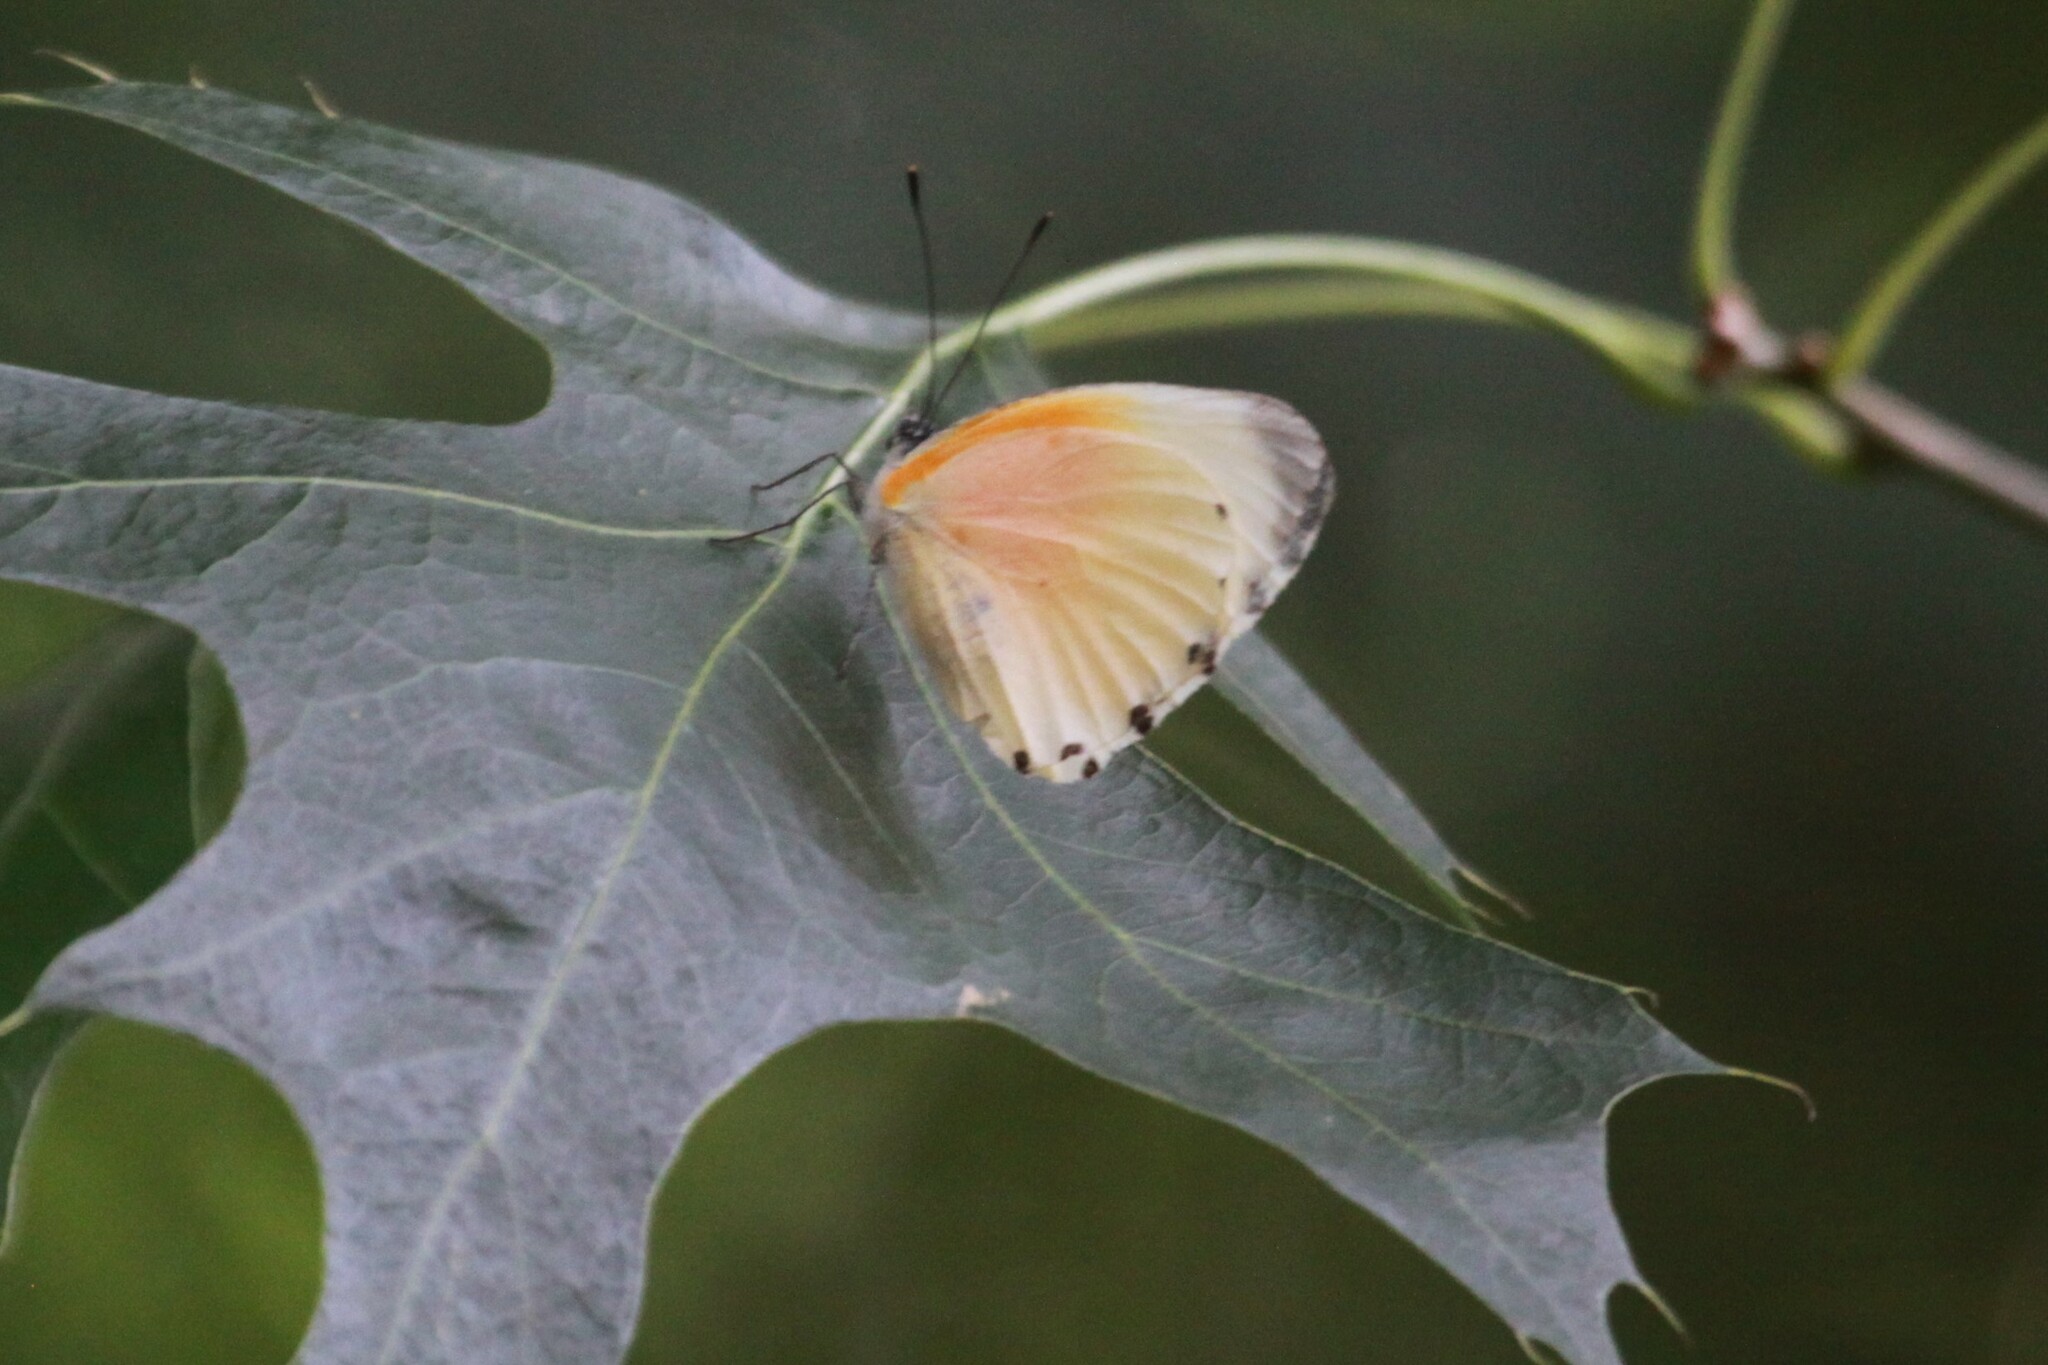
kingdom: Animalia
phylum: Arthropoda
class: Insecta
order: Lepidoptera
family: Pieridae
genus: Mylothris
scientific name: Mylothris rueppellii
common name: Twin dotted border
